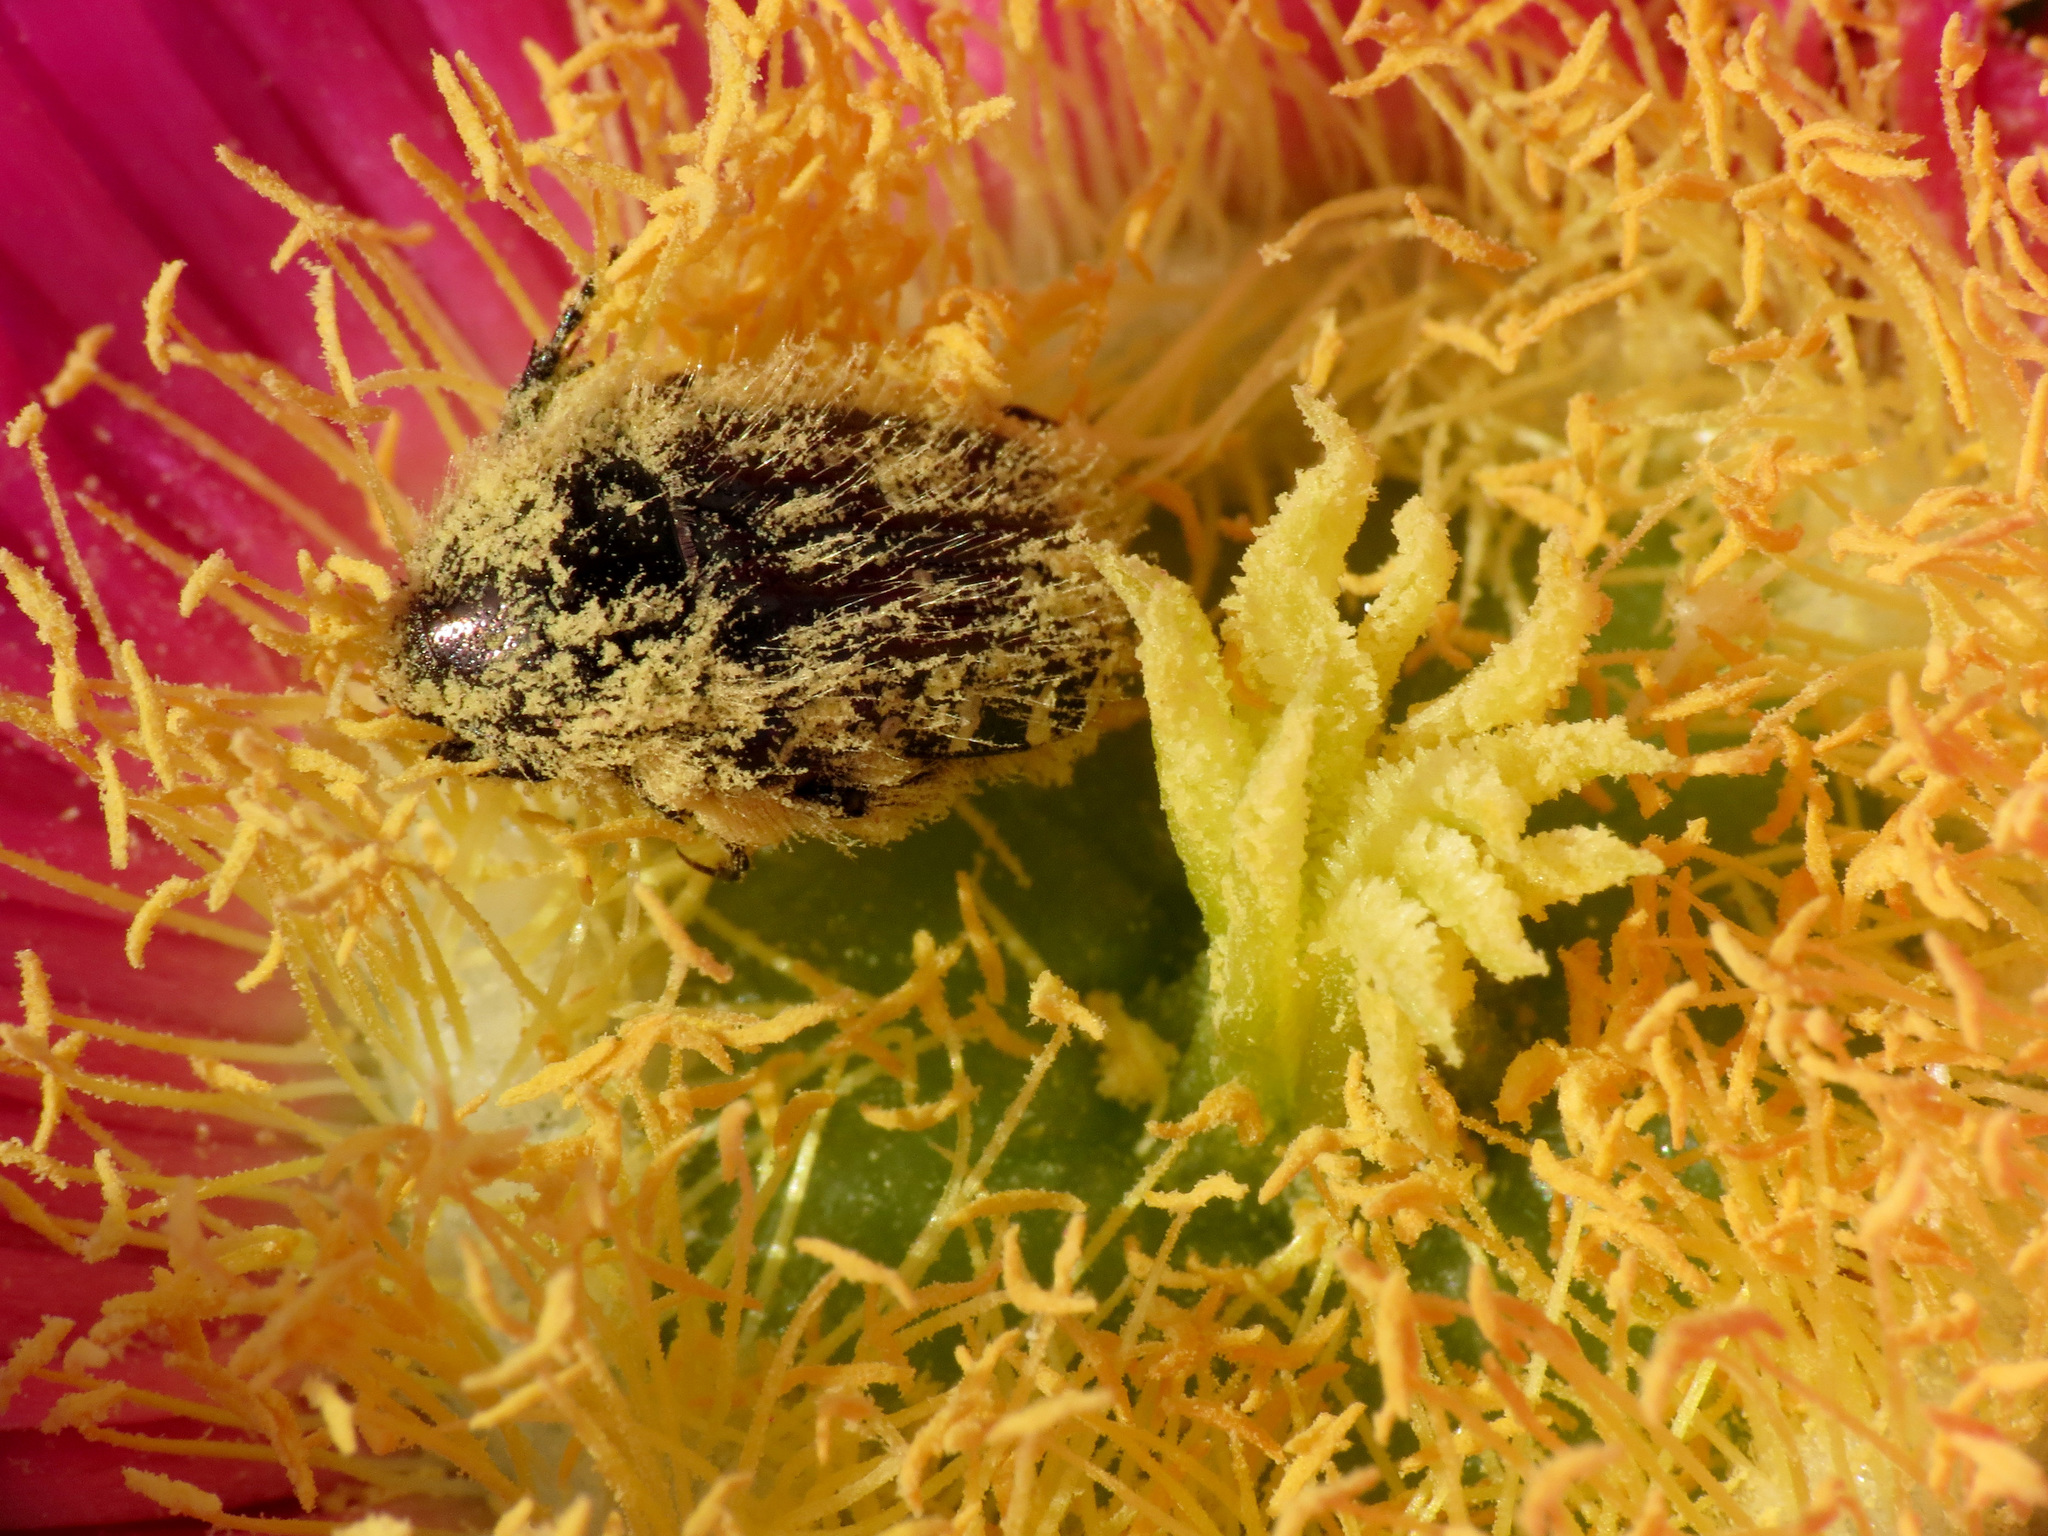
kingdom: Animalia
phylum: Arthropoda
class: Insecta
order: Coleoptera
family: Scarabaeidae
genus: Oxythyrea
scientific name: Oxythyrea funesta
